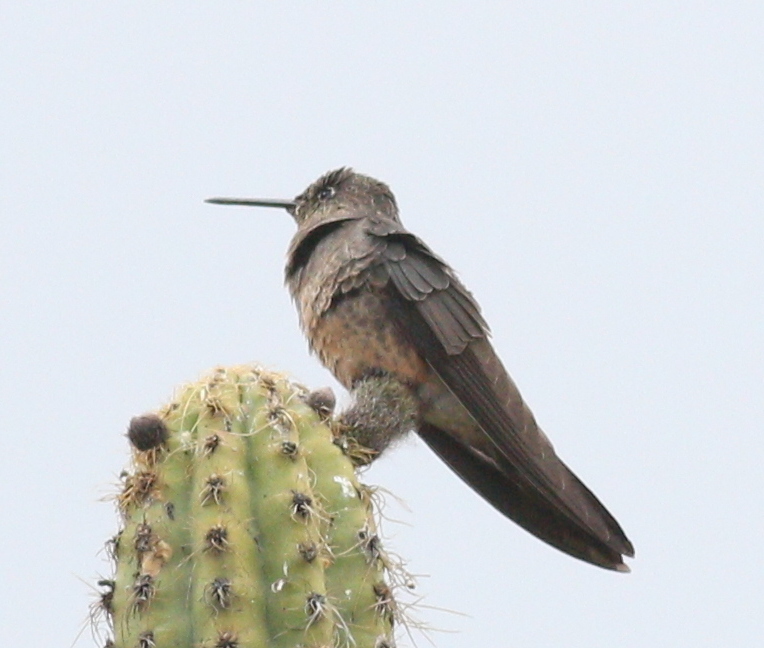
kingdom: Animalia
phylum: Chordata
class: Aves
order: Apodiformes
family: Trochilidae
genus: Patagona
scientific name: Patagona gigas
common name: Giant hummingbird
